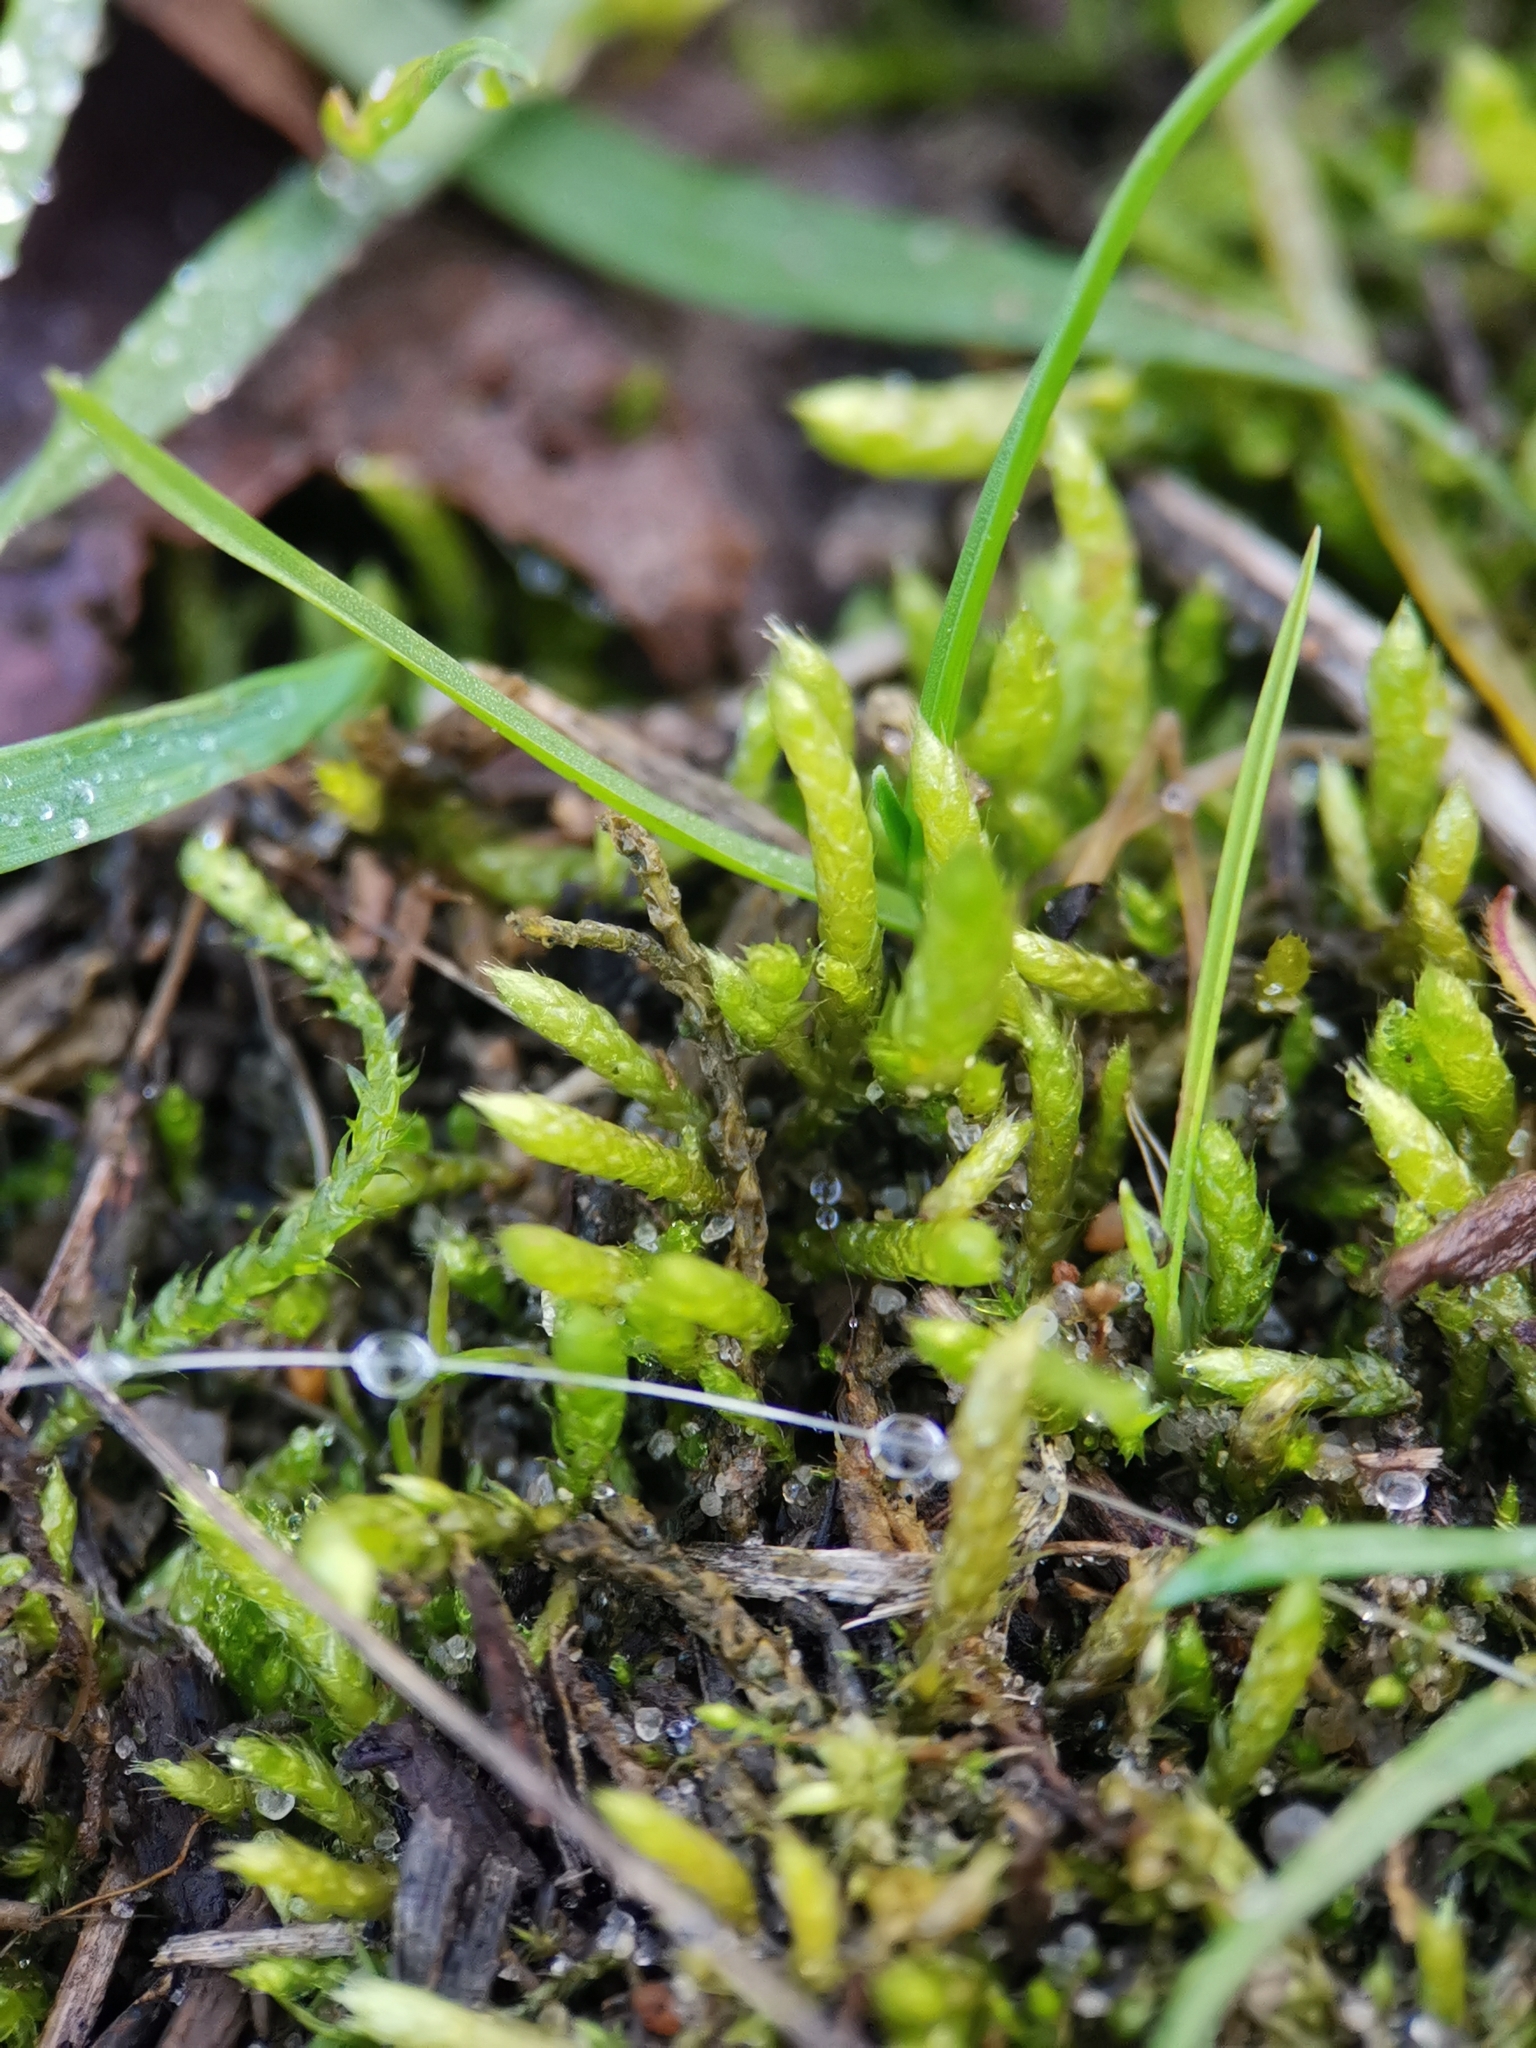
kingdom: Plantae
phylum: Bryophyta
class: Bryopsida
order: Hypnales
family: Brachytheciaceae
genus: Brachythecium
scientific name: Brachythecium albicans
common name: Whitish ragged moss
